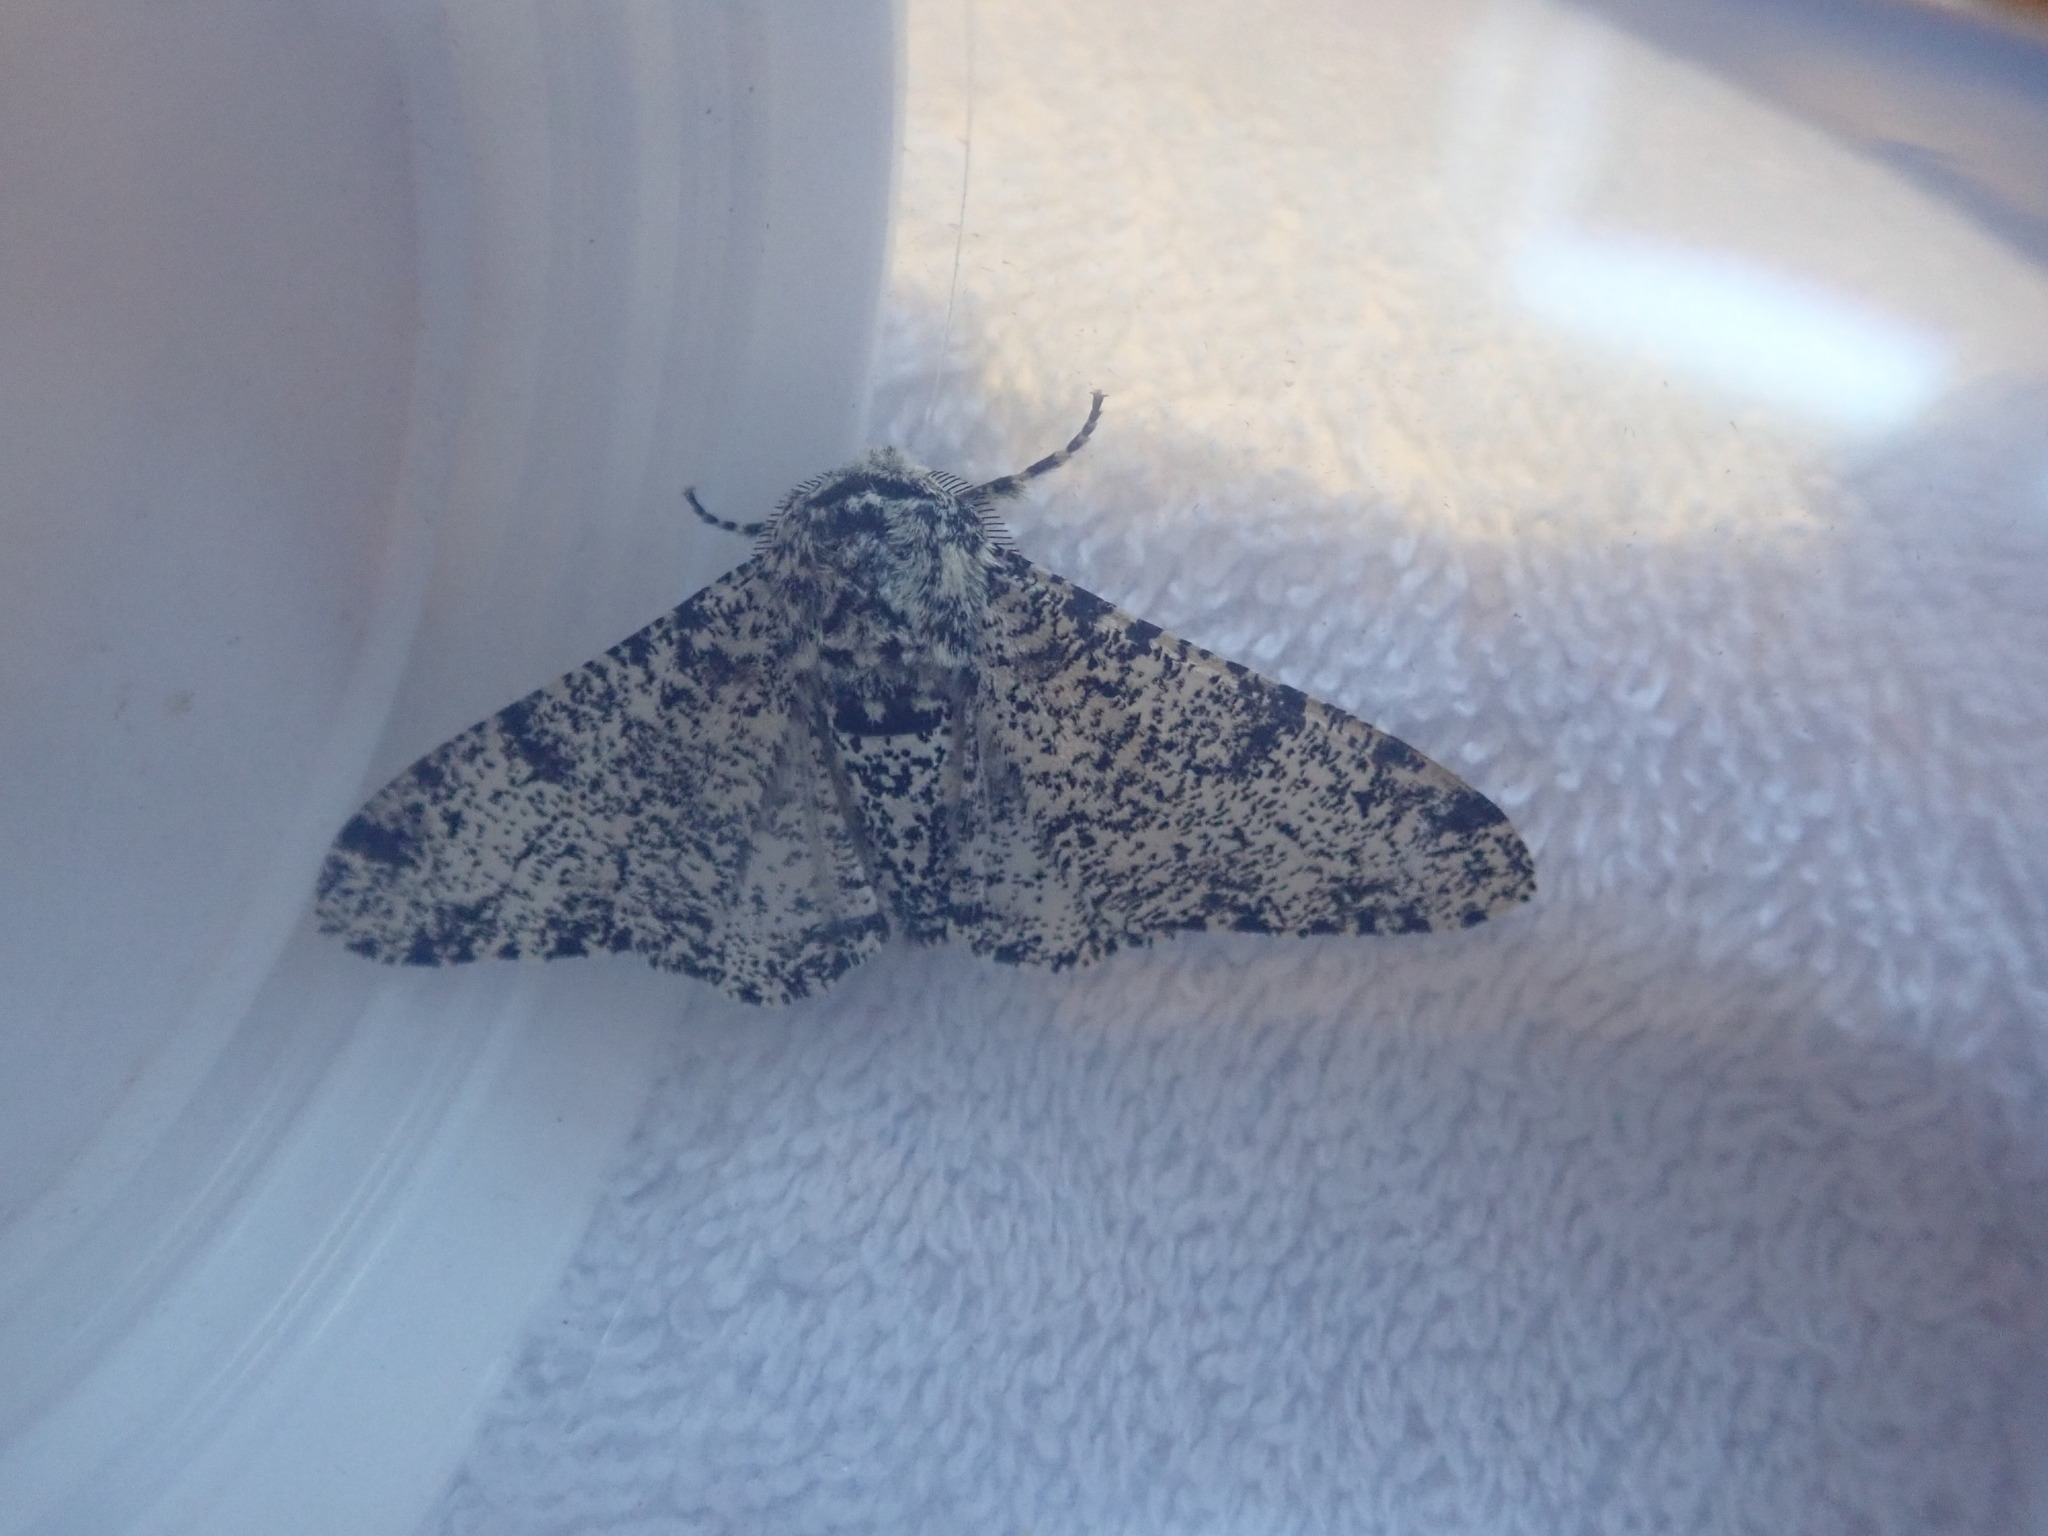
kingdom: Animalia
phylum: Arthropoda
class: Insecta
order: Lepidoptera
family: Geometridae
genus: Biston
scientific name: Biston betularia
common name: Peppered moth
